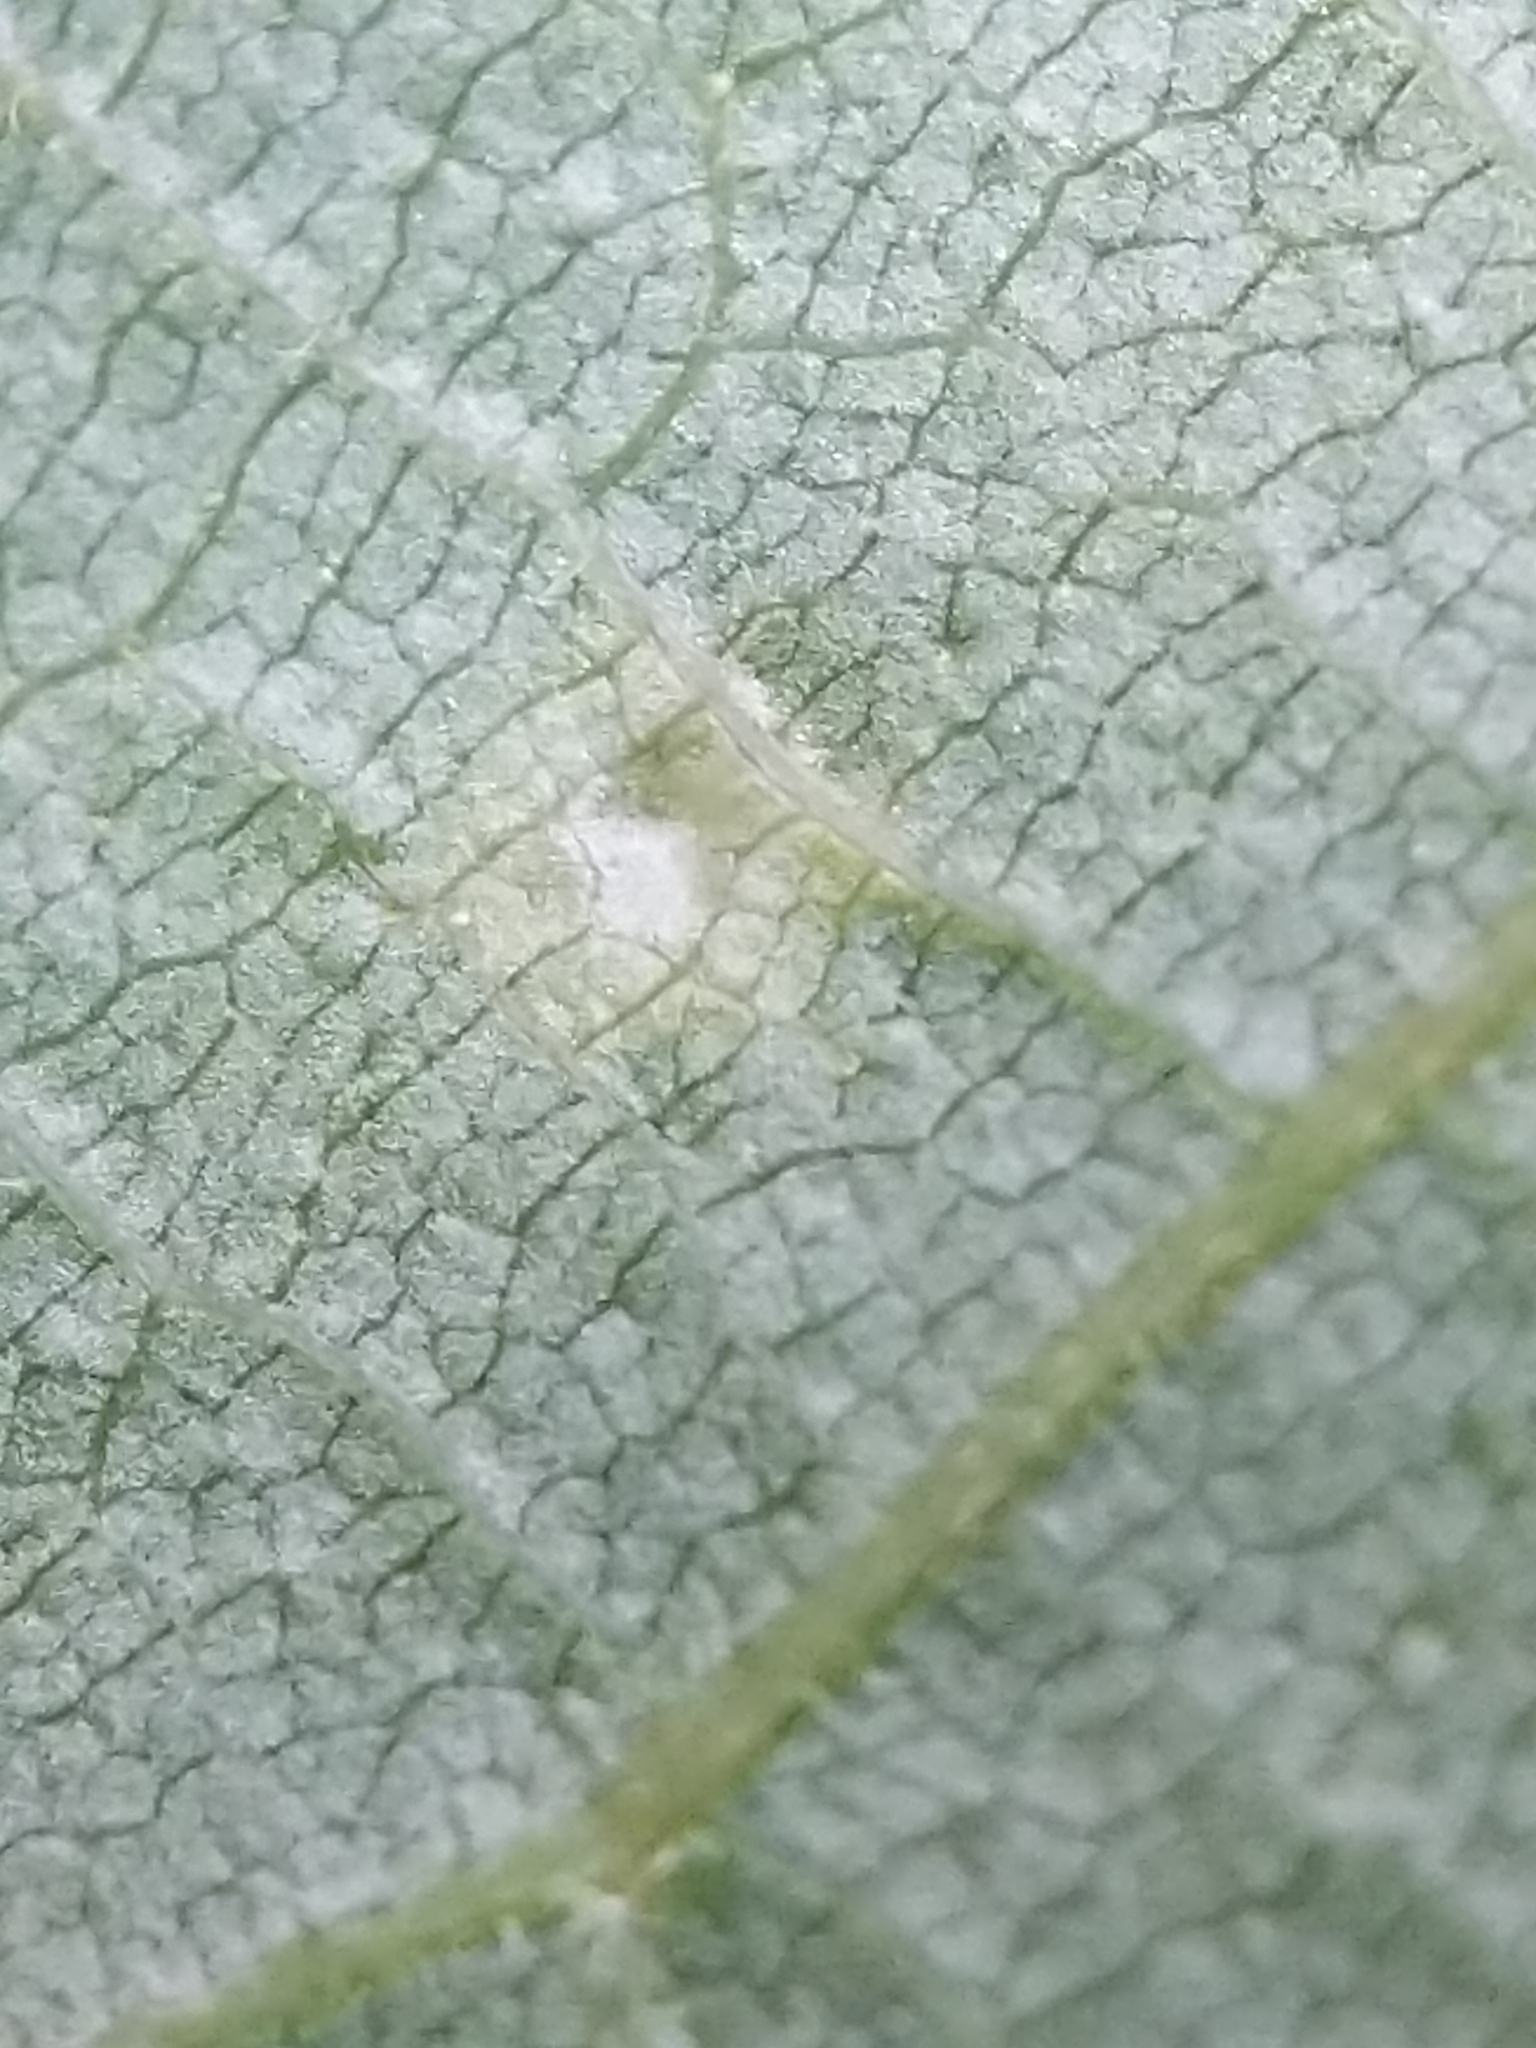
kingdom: Animalia
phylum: Arthropoda
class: Insecta
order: Diptera
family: Cecidomyiidae
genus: Caryomyia
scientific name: Caryomyia viscidolium
